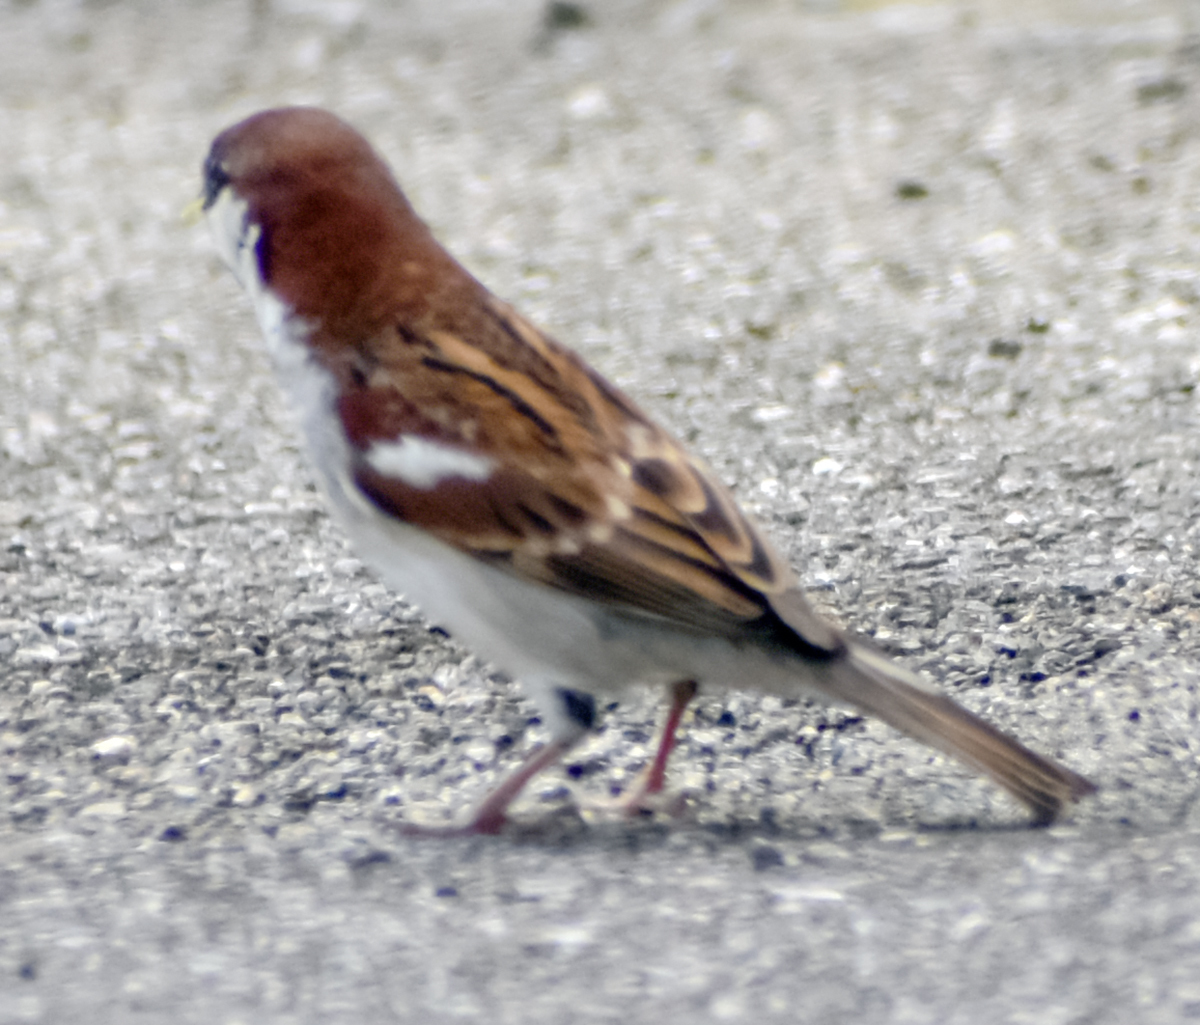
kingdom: Animalia
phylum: Chordata
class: Aves
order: Passeriformes
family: Passeridae
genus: Passer
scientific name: Passer italiae
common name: Italian sparrow
